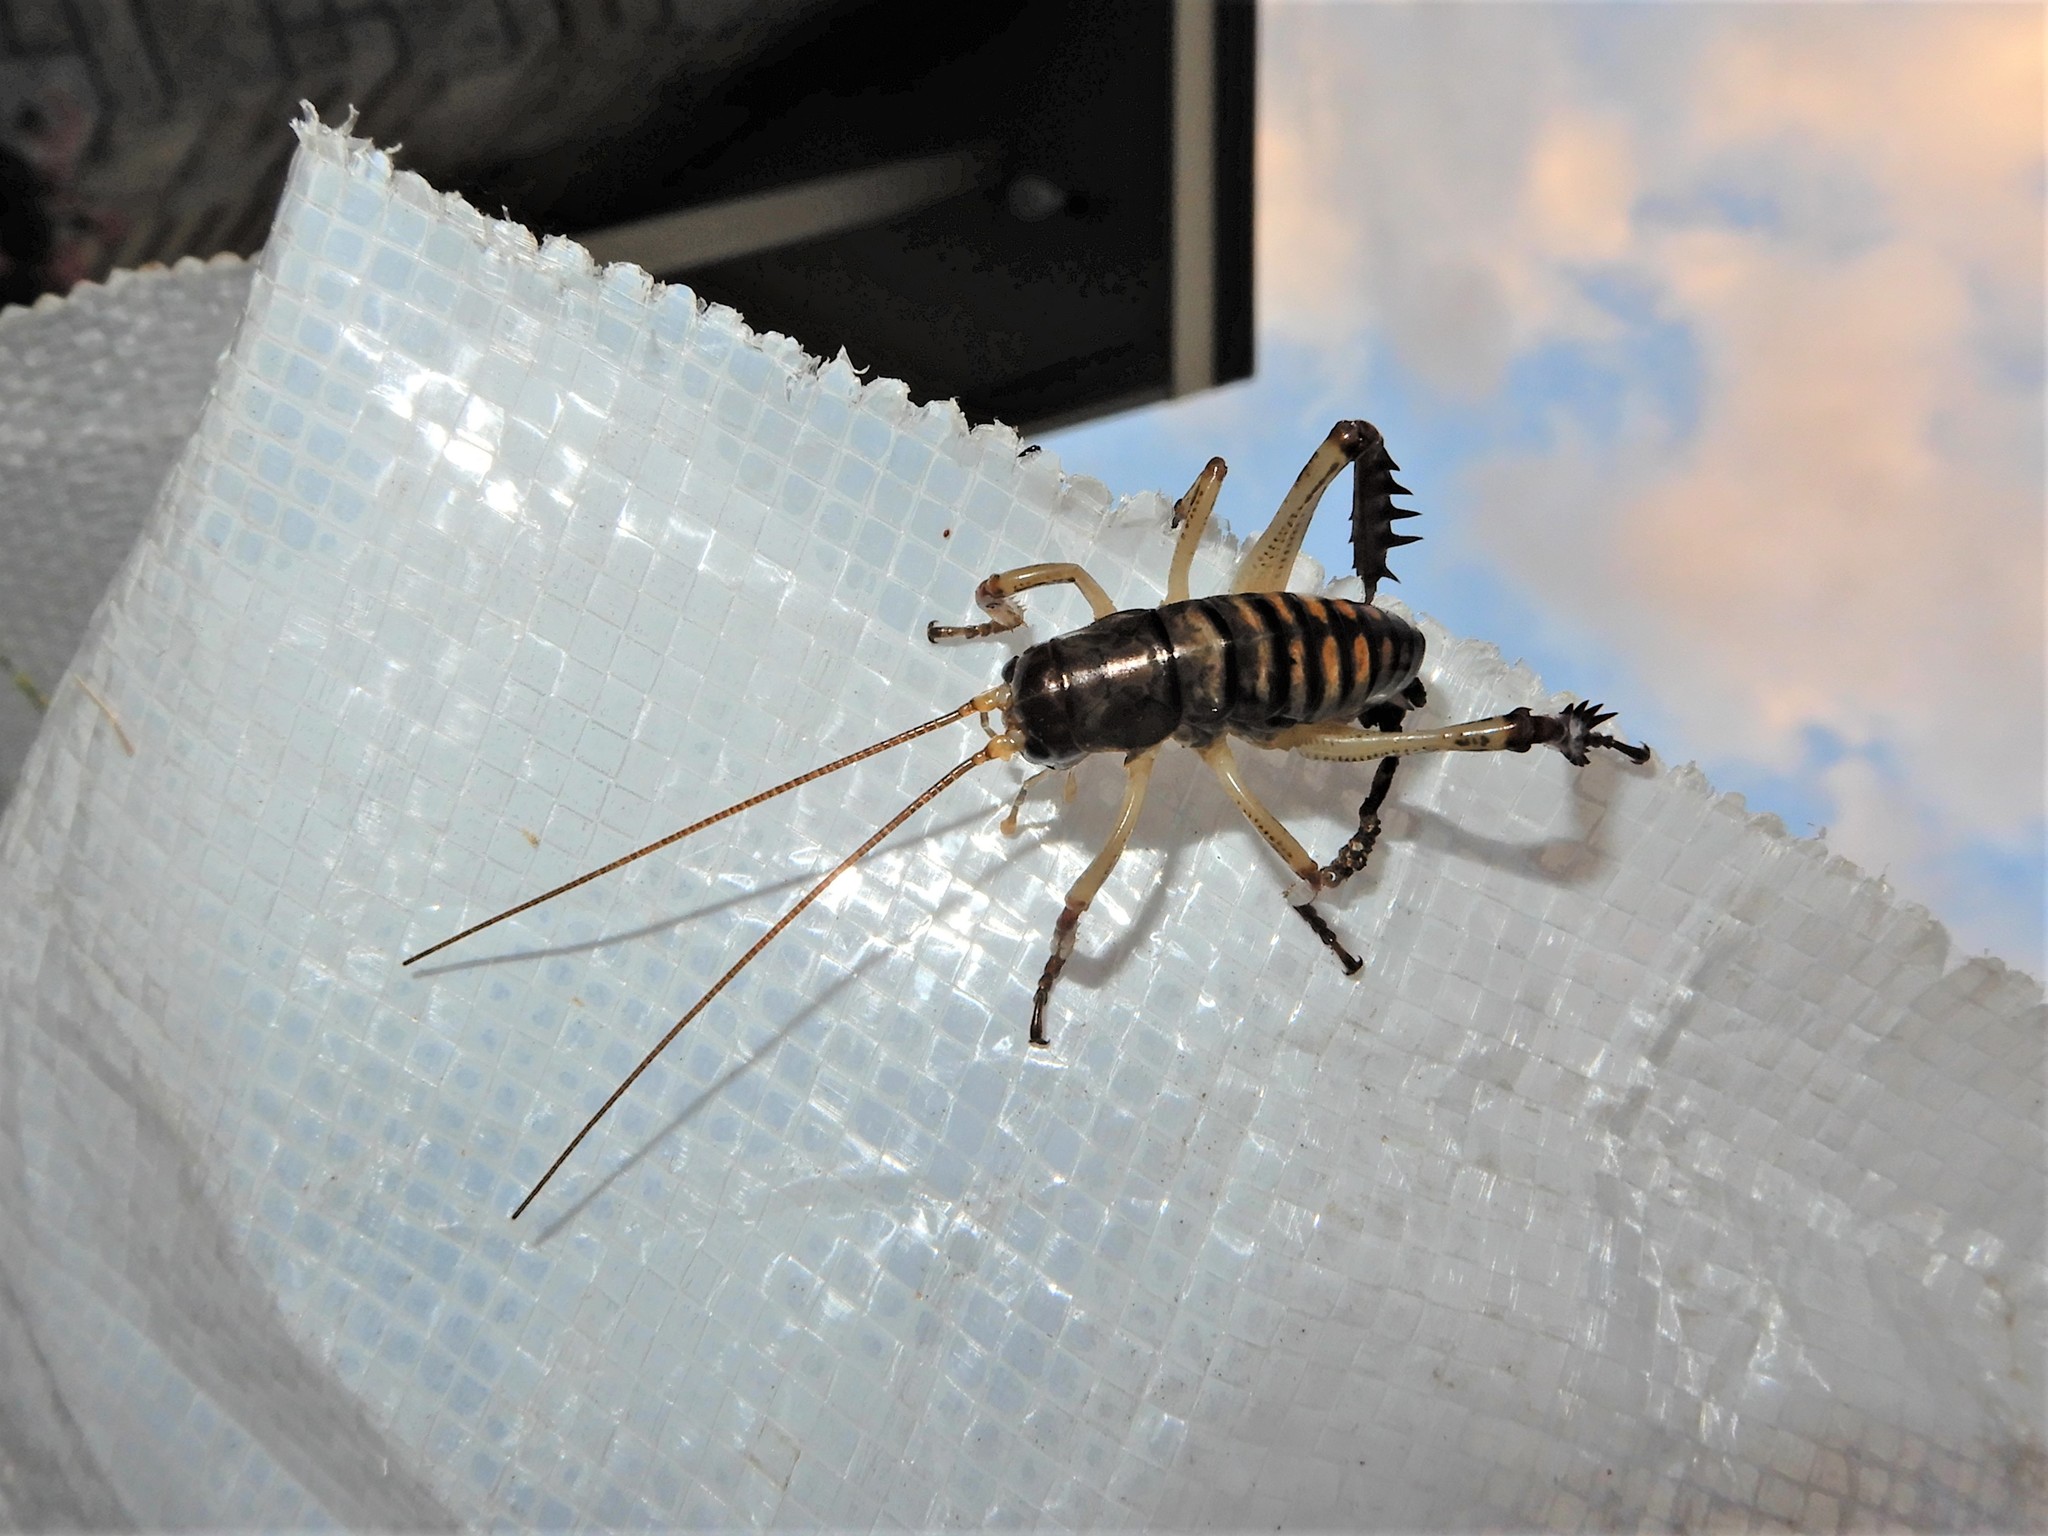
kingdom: Animalia
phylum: Arthropoda
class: Insecta
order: Orthoptera
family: Anostostomatidae
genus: Hemideina
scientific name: Hemideina crassidens
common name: Wellington tree weta
